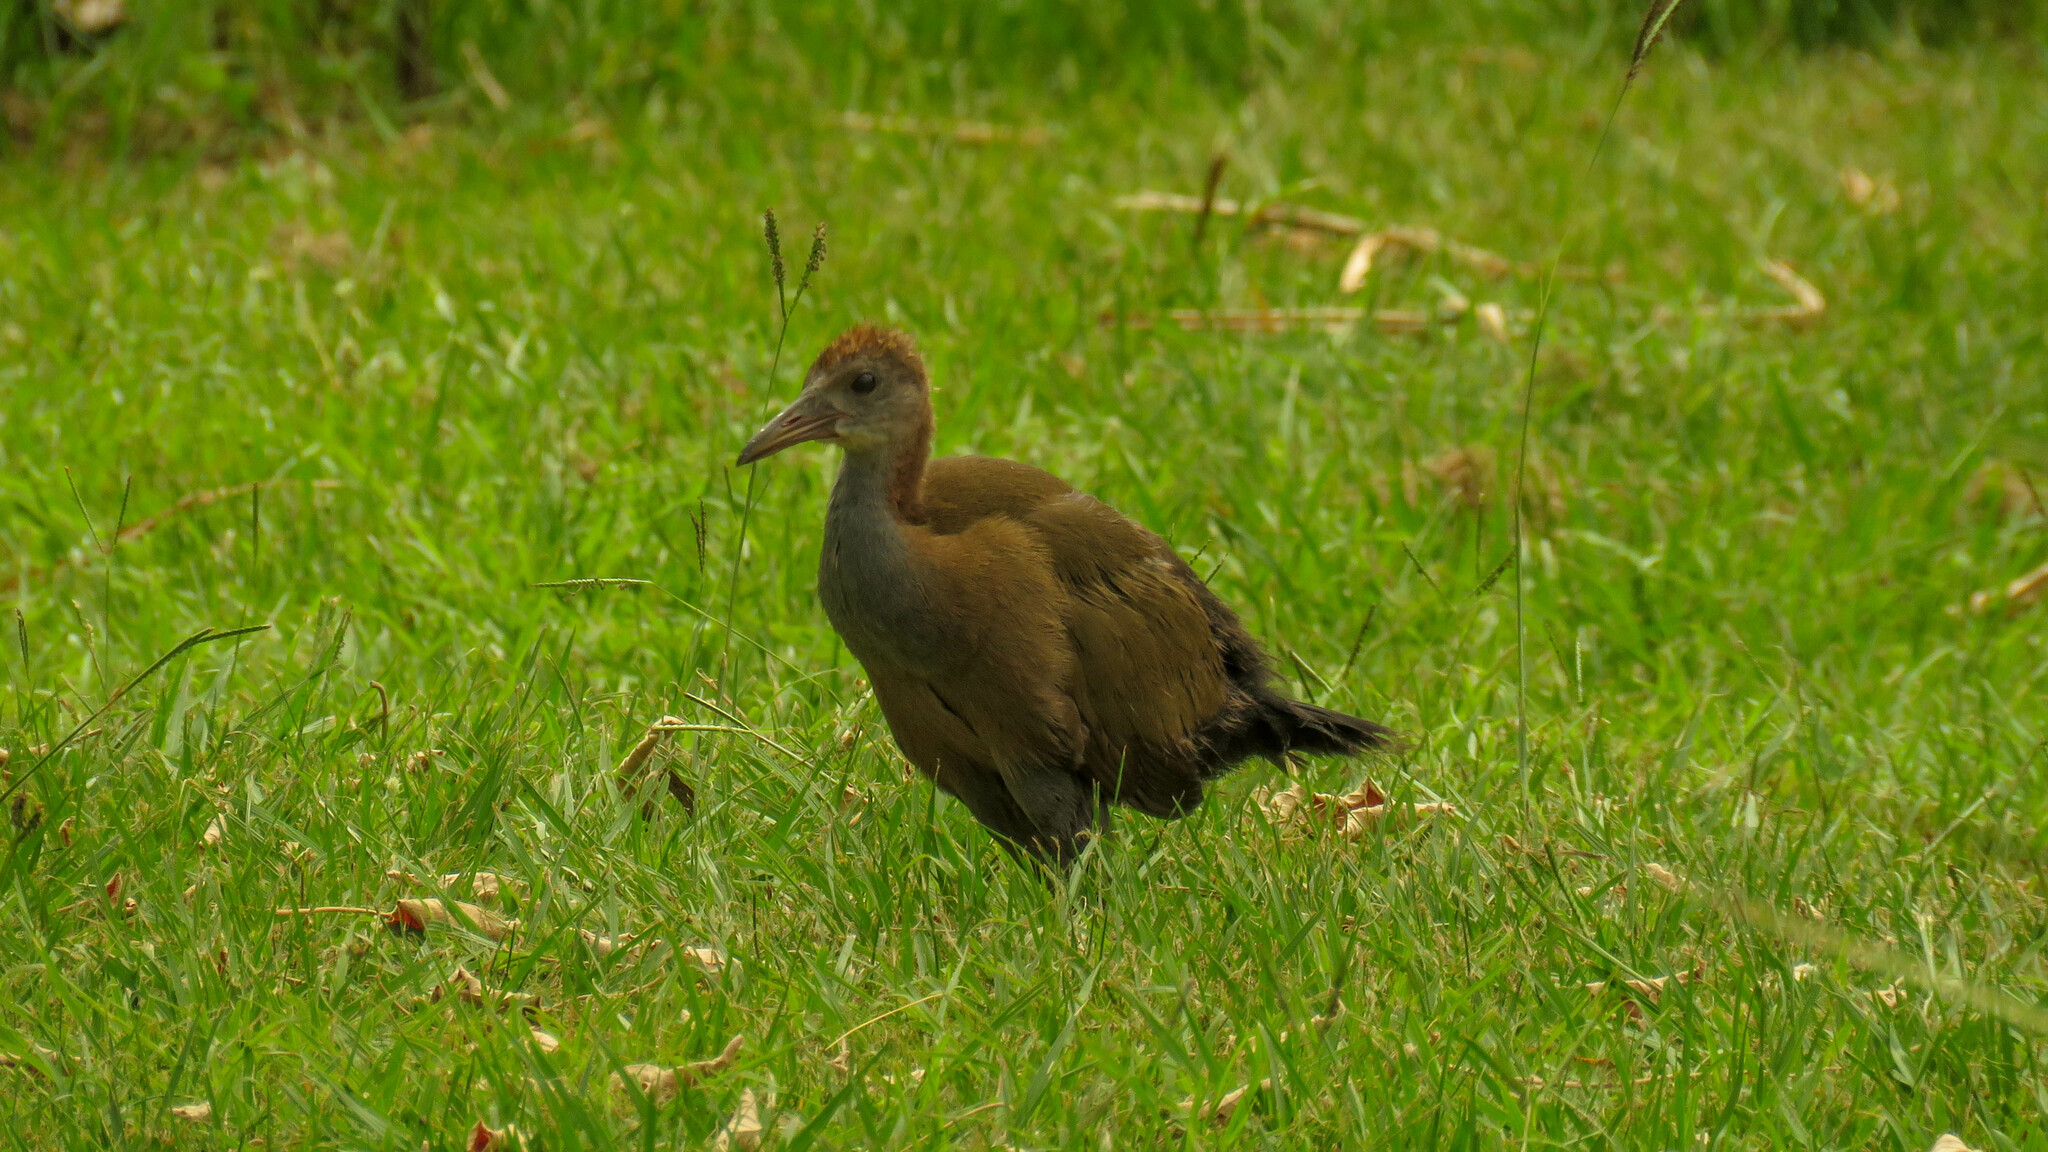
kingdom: Animalia
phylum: Chordata
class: Aves
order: Gruiformes
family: Rallidae
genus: Aramides
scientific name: Aramides ypecaha
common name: Giant wood rail
